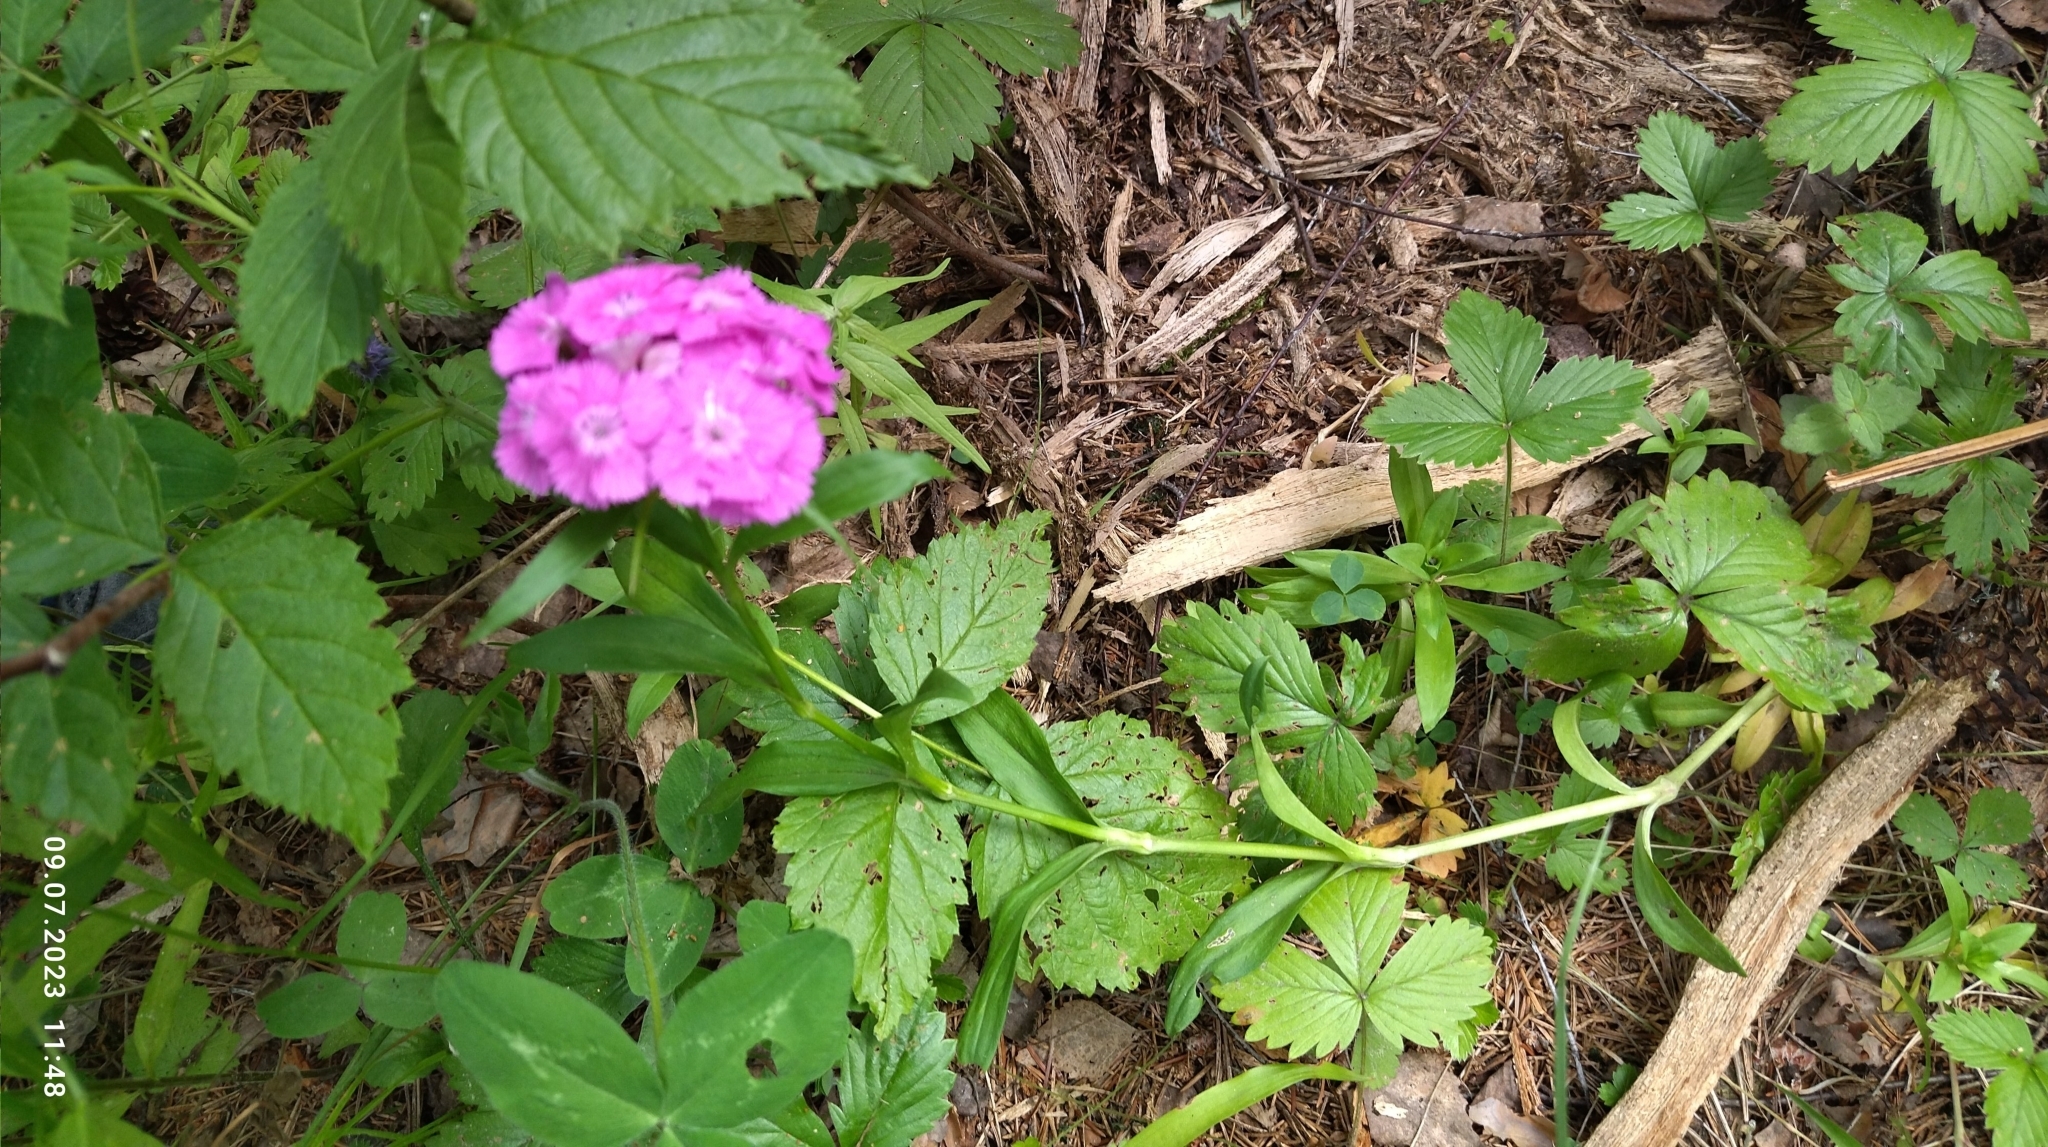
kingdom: Plantae
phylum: Tracheophyta
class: Magnoliopsida
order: Caryophyllales
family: Caryophyllaceae
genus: Dianthus
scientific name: Dianthus barbatus
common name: Sweet-william
